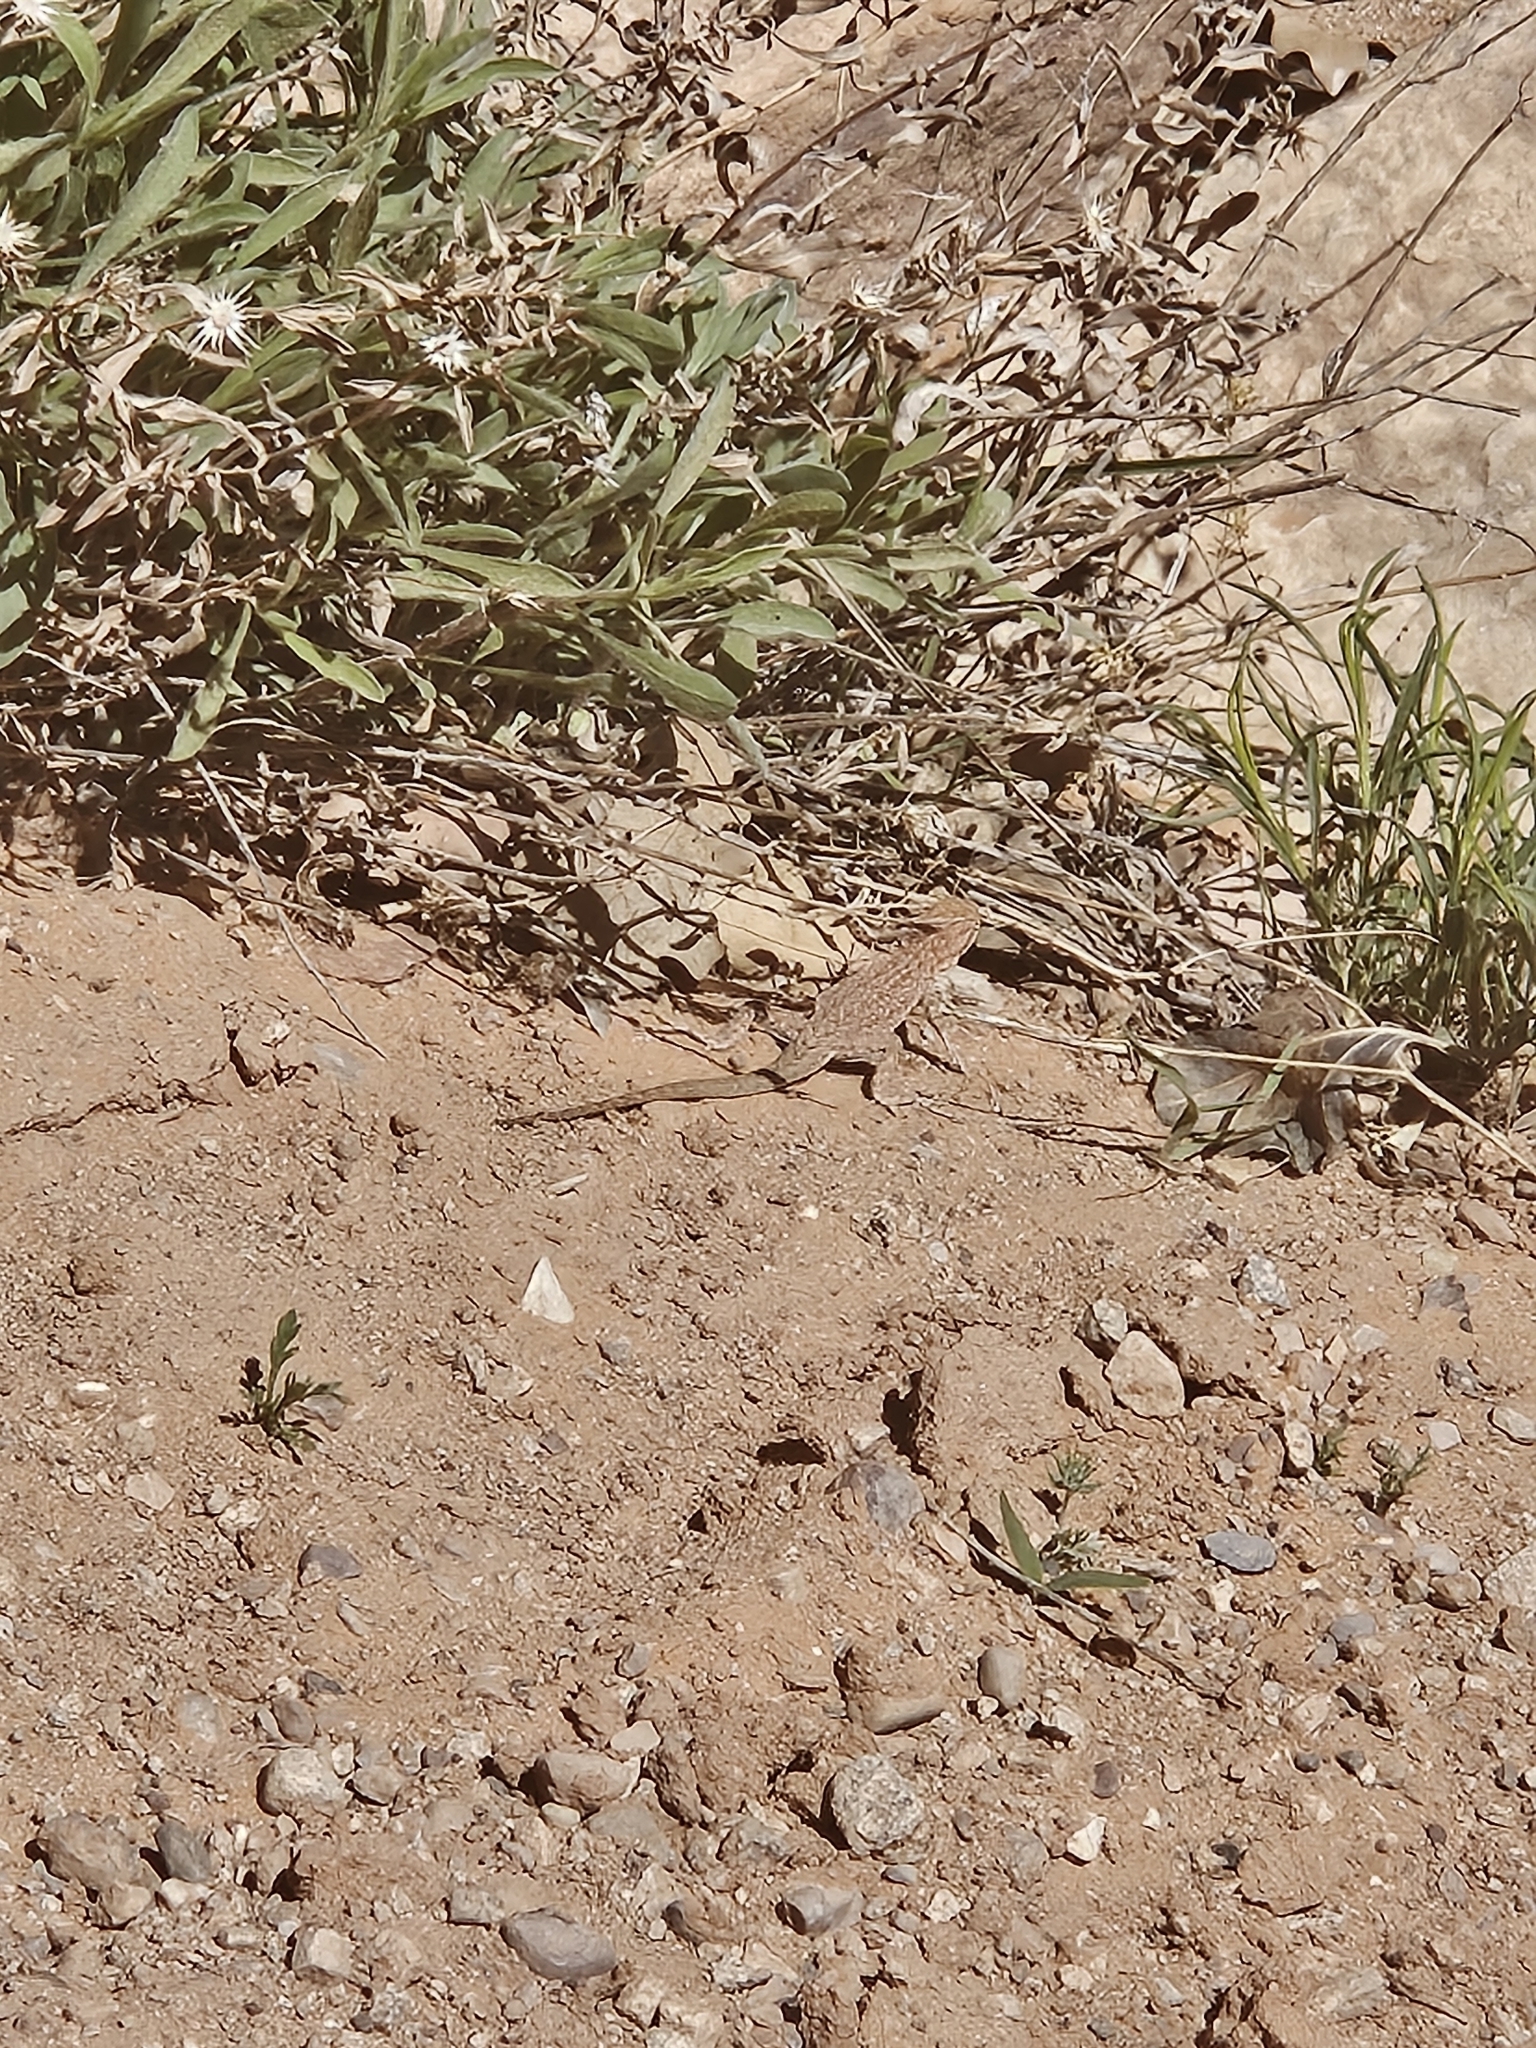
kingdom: Animalia
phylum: Chordata
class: Squamata
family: Phrynosomatidae
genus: Uta
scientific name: Uta stansburiana
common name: Side-blotched lizard
